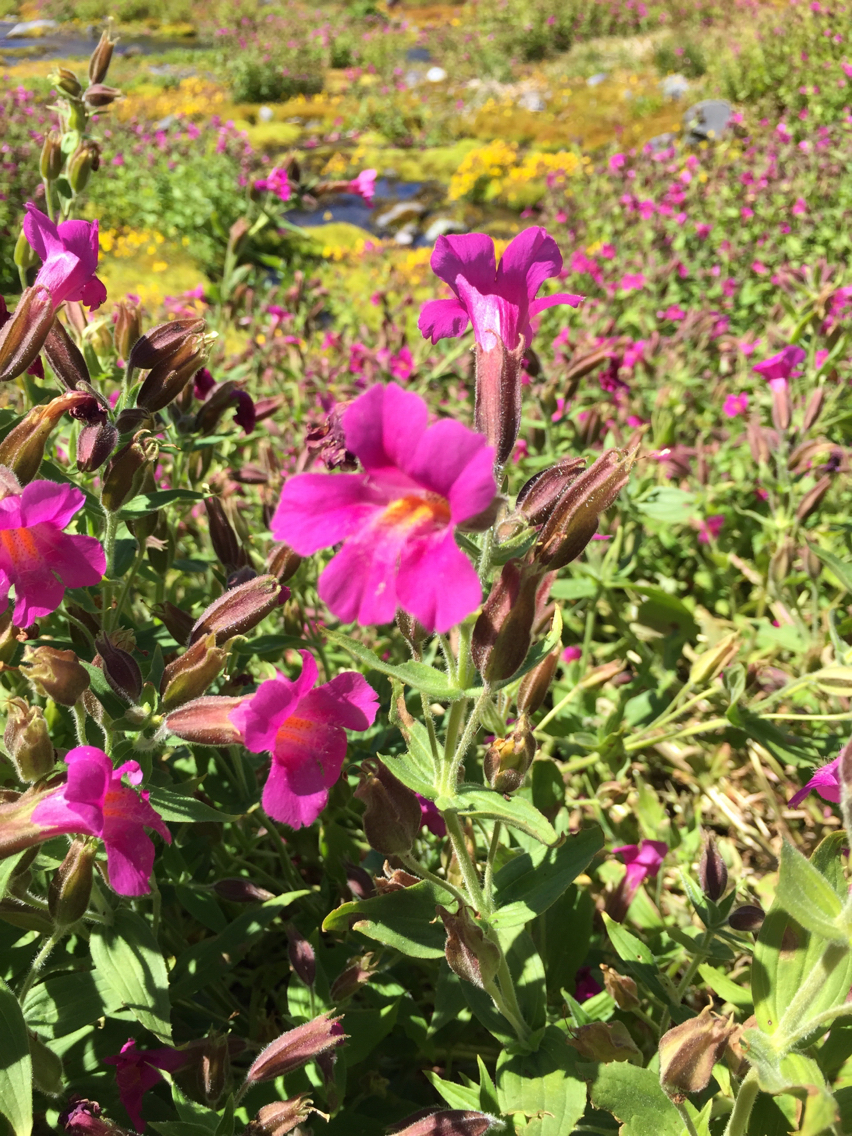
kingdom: Plantae
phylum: Tracheophyta
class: Magnoliopsida
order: Lamiales
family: Phrymaceae
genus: Erythranthe
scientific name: Erythranthe lewisii
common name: Lewis's monkey-flower
